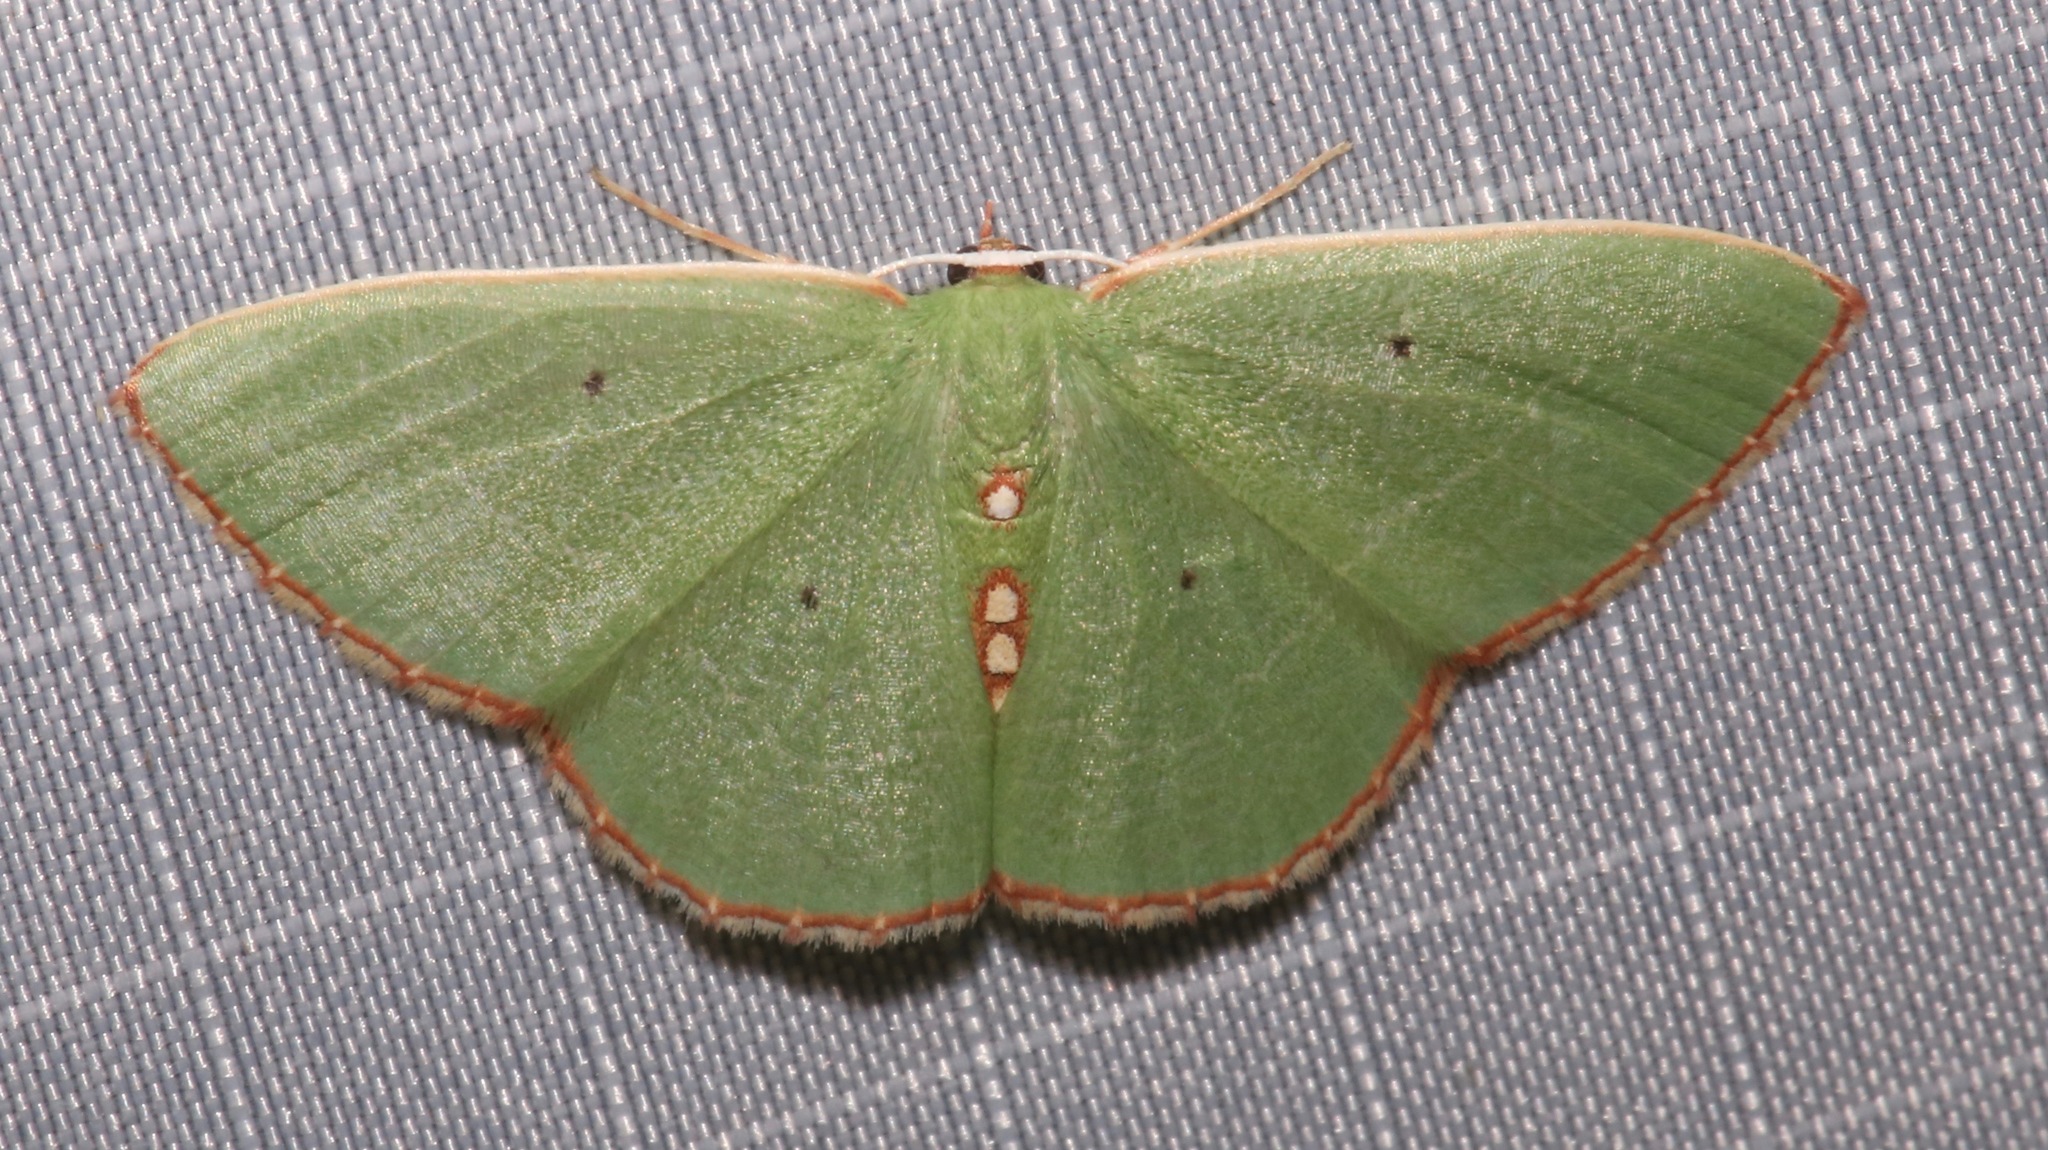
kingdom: Animalia
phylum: Arthropoda
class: Insecta
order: Lepidoptera
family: Geometridae
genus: Nemoria
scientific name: Nemoria lixaria
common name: Red-bordered emerald
